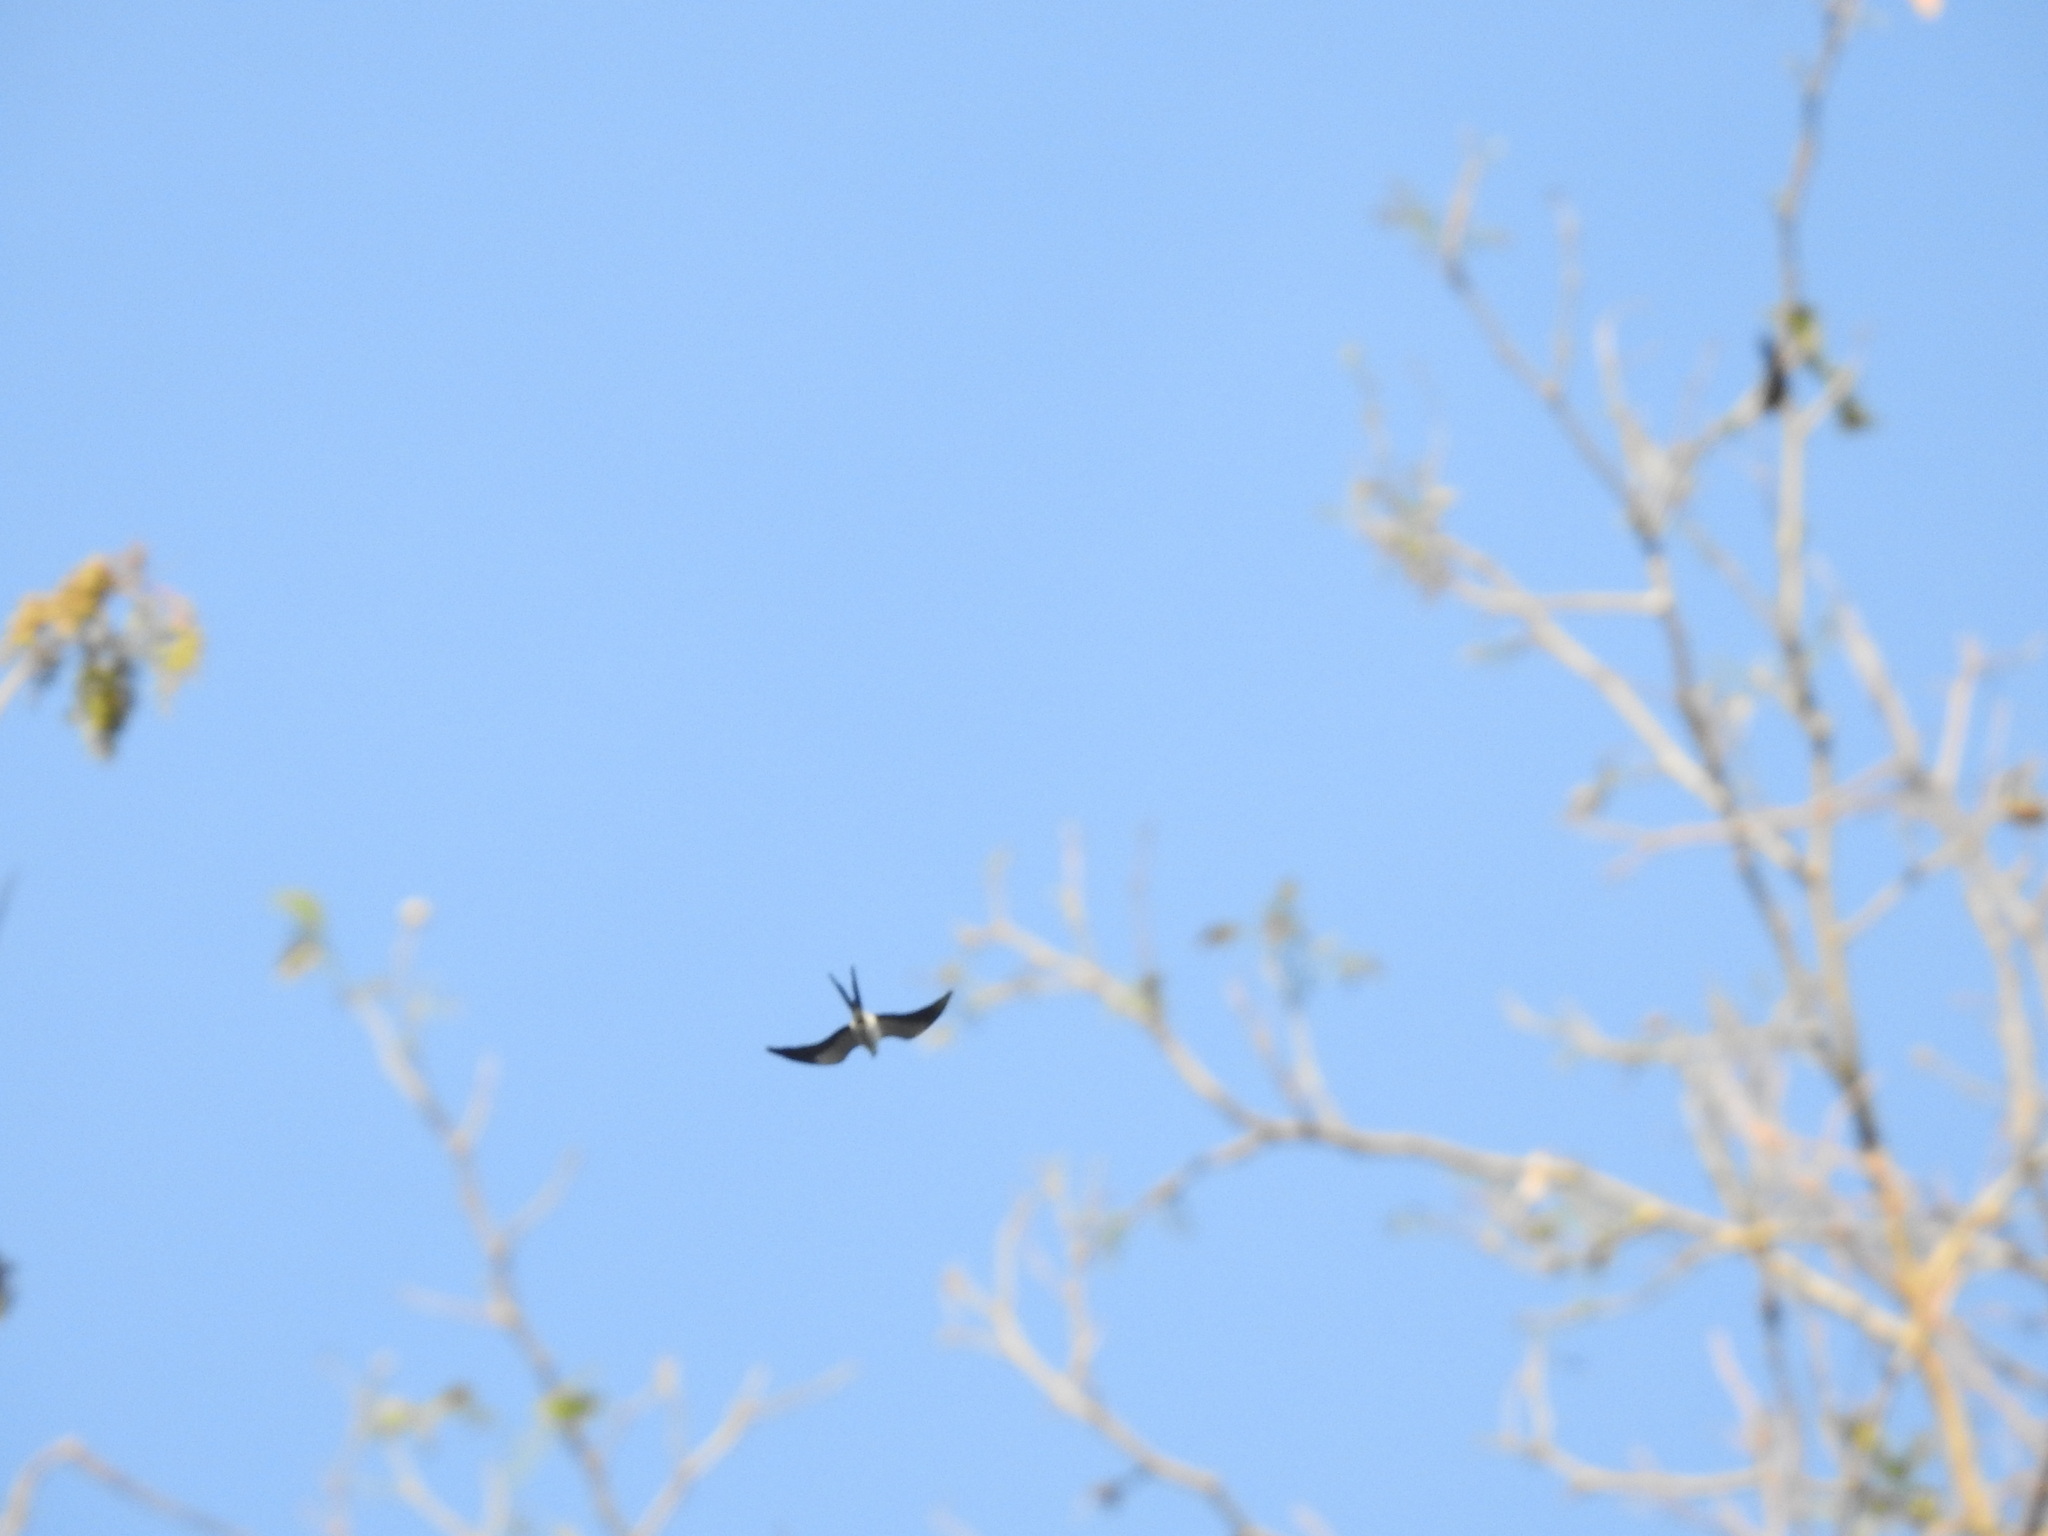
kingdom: Animalia
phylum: Chordata
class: Aves
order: Accipitriformes
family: Accipitridae
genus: Elanoides
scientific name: Elanoides forficatus
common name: Swallow-tailed kite
